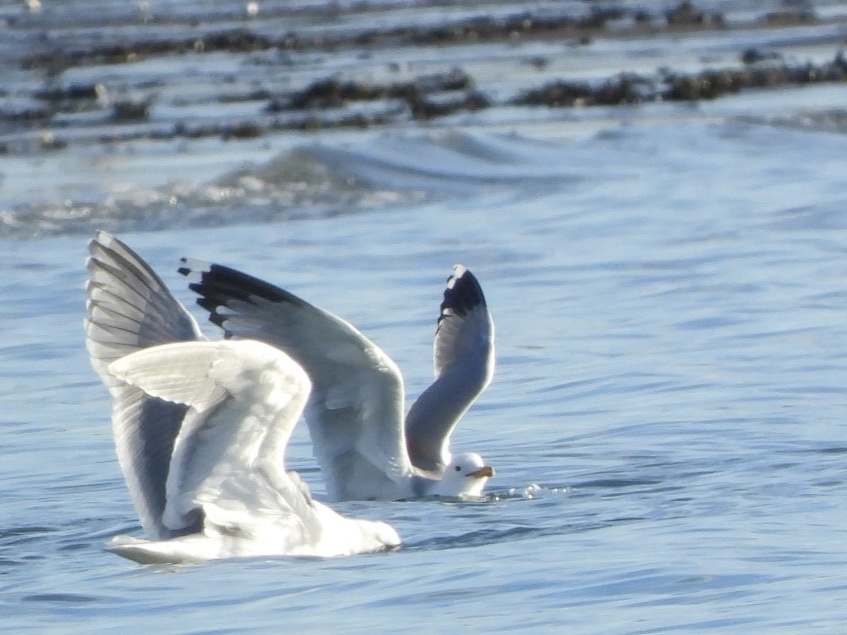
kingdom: Animalia
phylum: Chordata
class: Aves
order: Charadriiformes
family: Laridae
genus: Larus
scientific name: Larus californicus
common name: California gull
